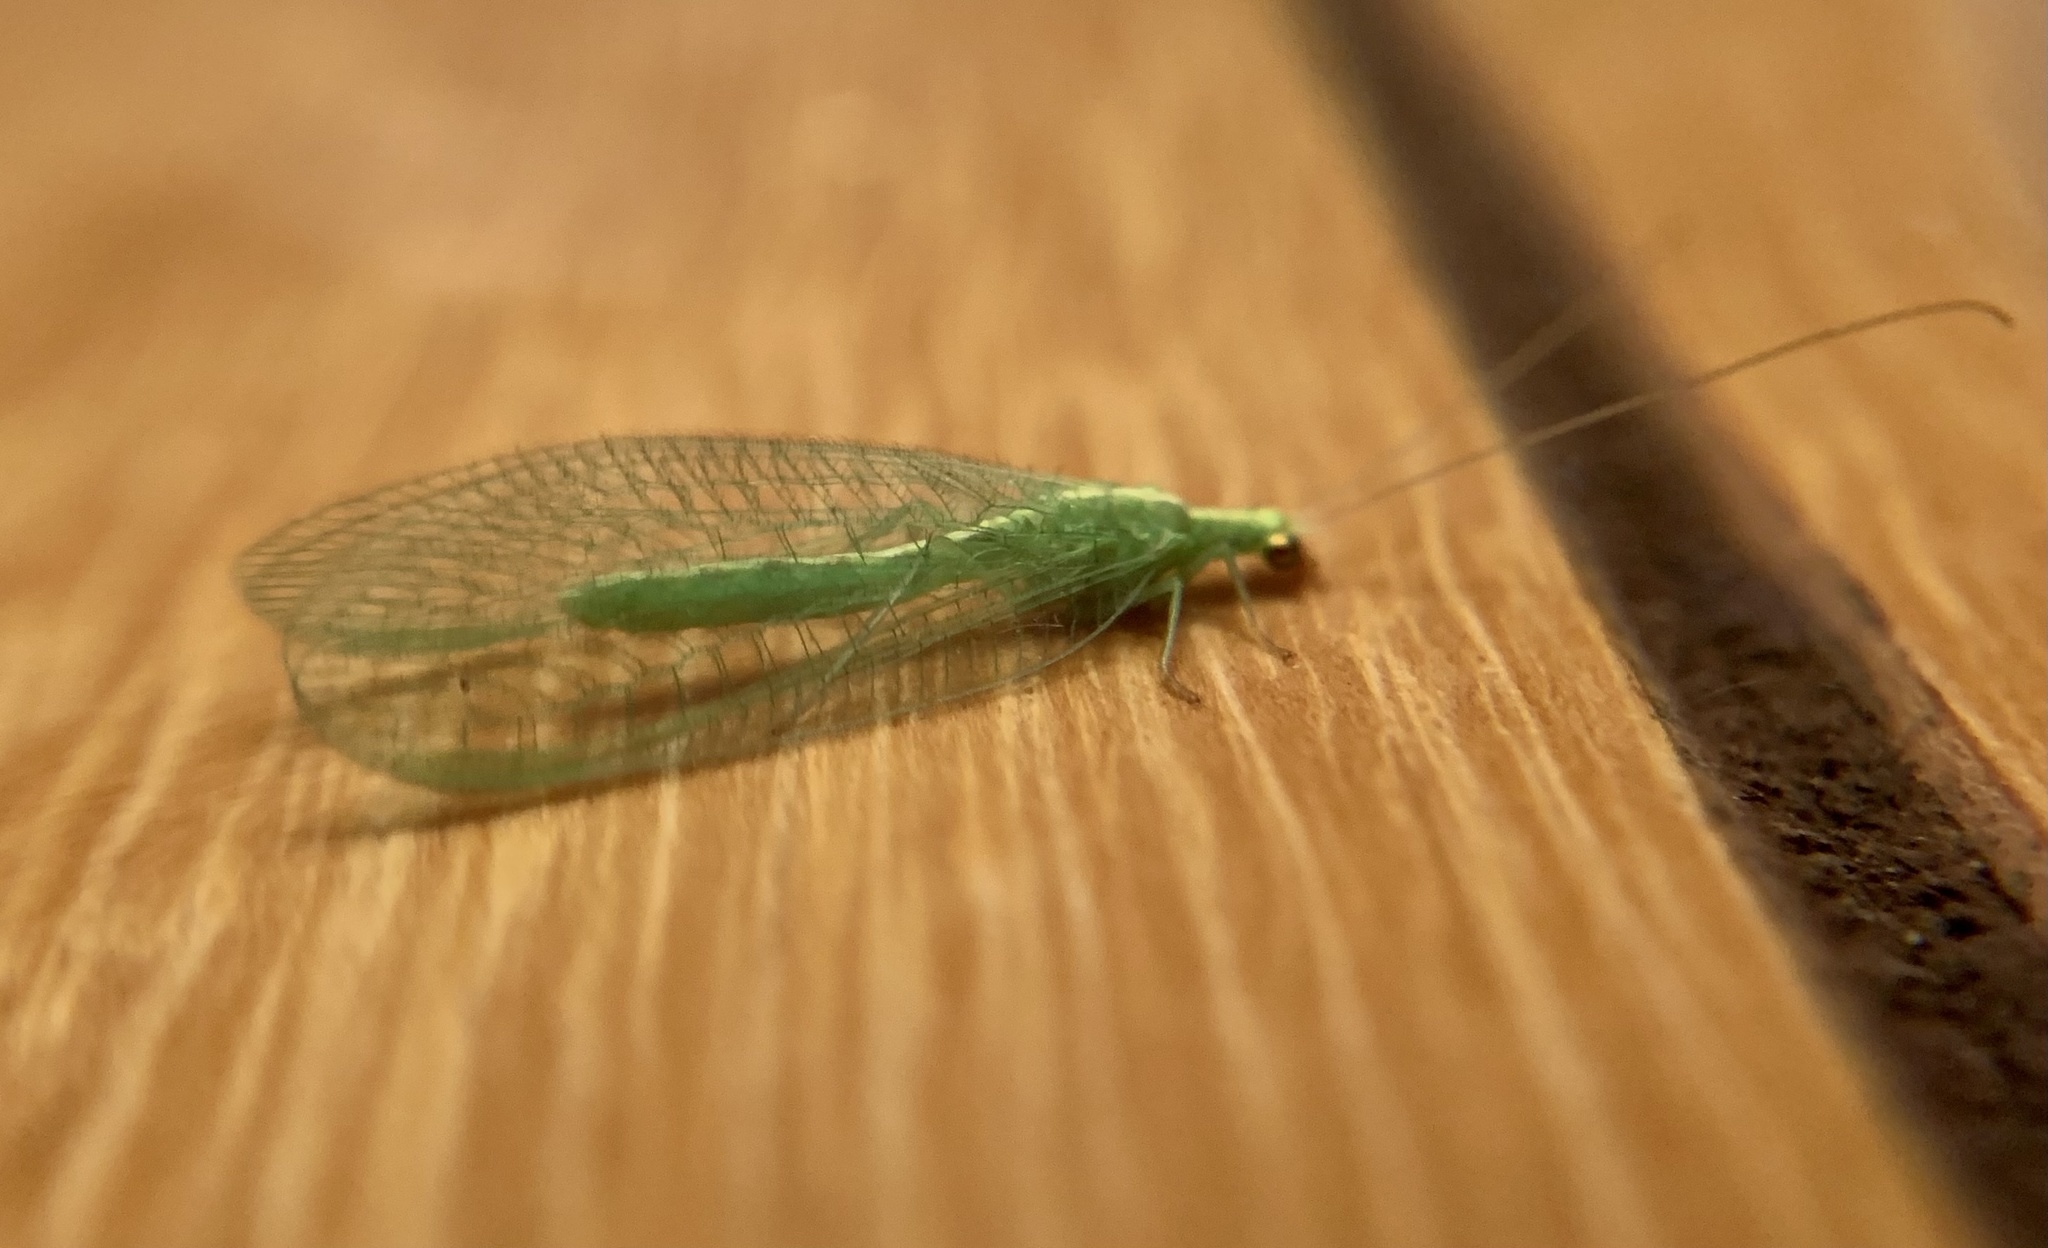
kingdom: Animalia
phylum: Arthropoda
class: Insecta
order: Neuroptera
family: Chrysopidae
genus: Chrysoperla
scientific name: Chrysoperla
